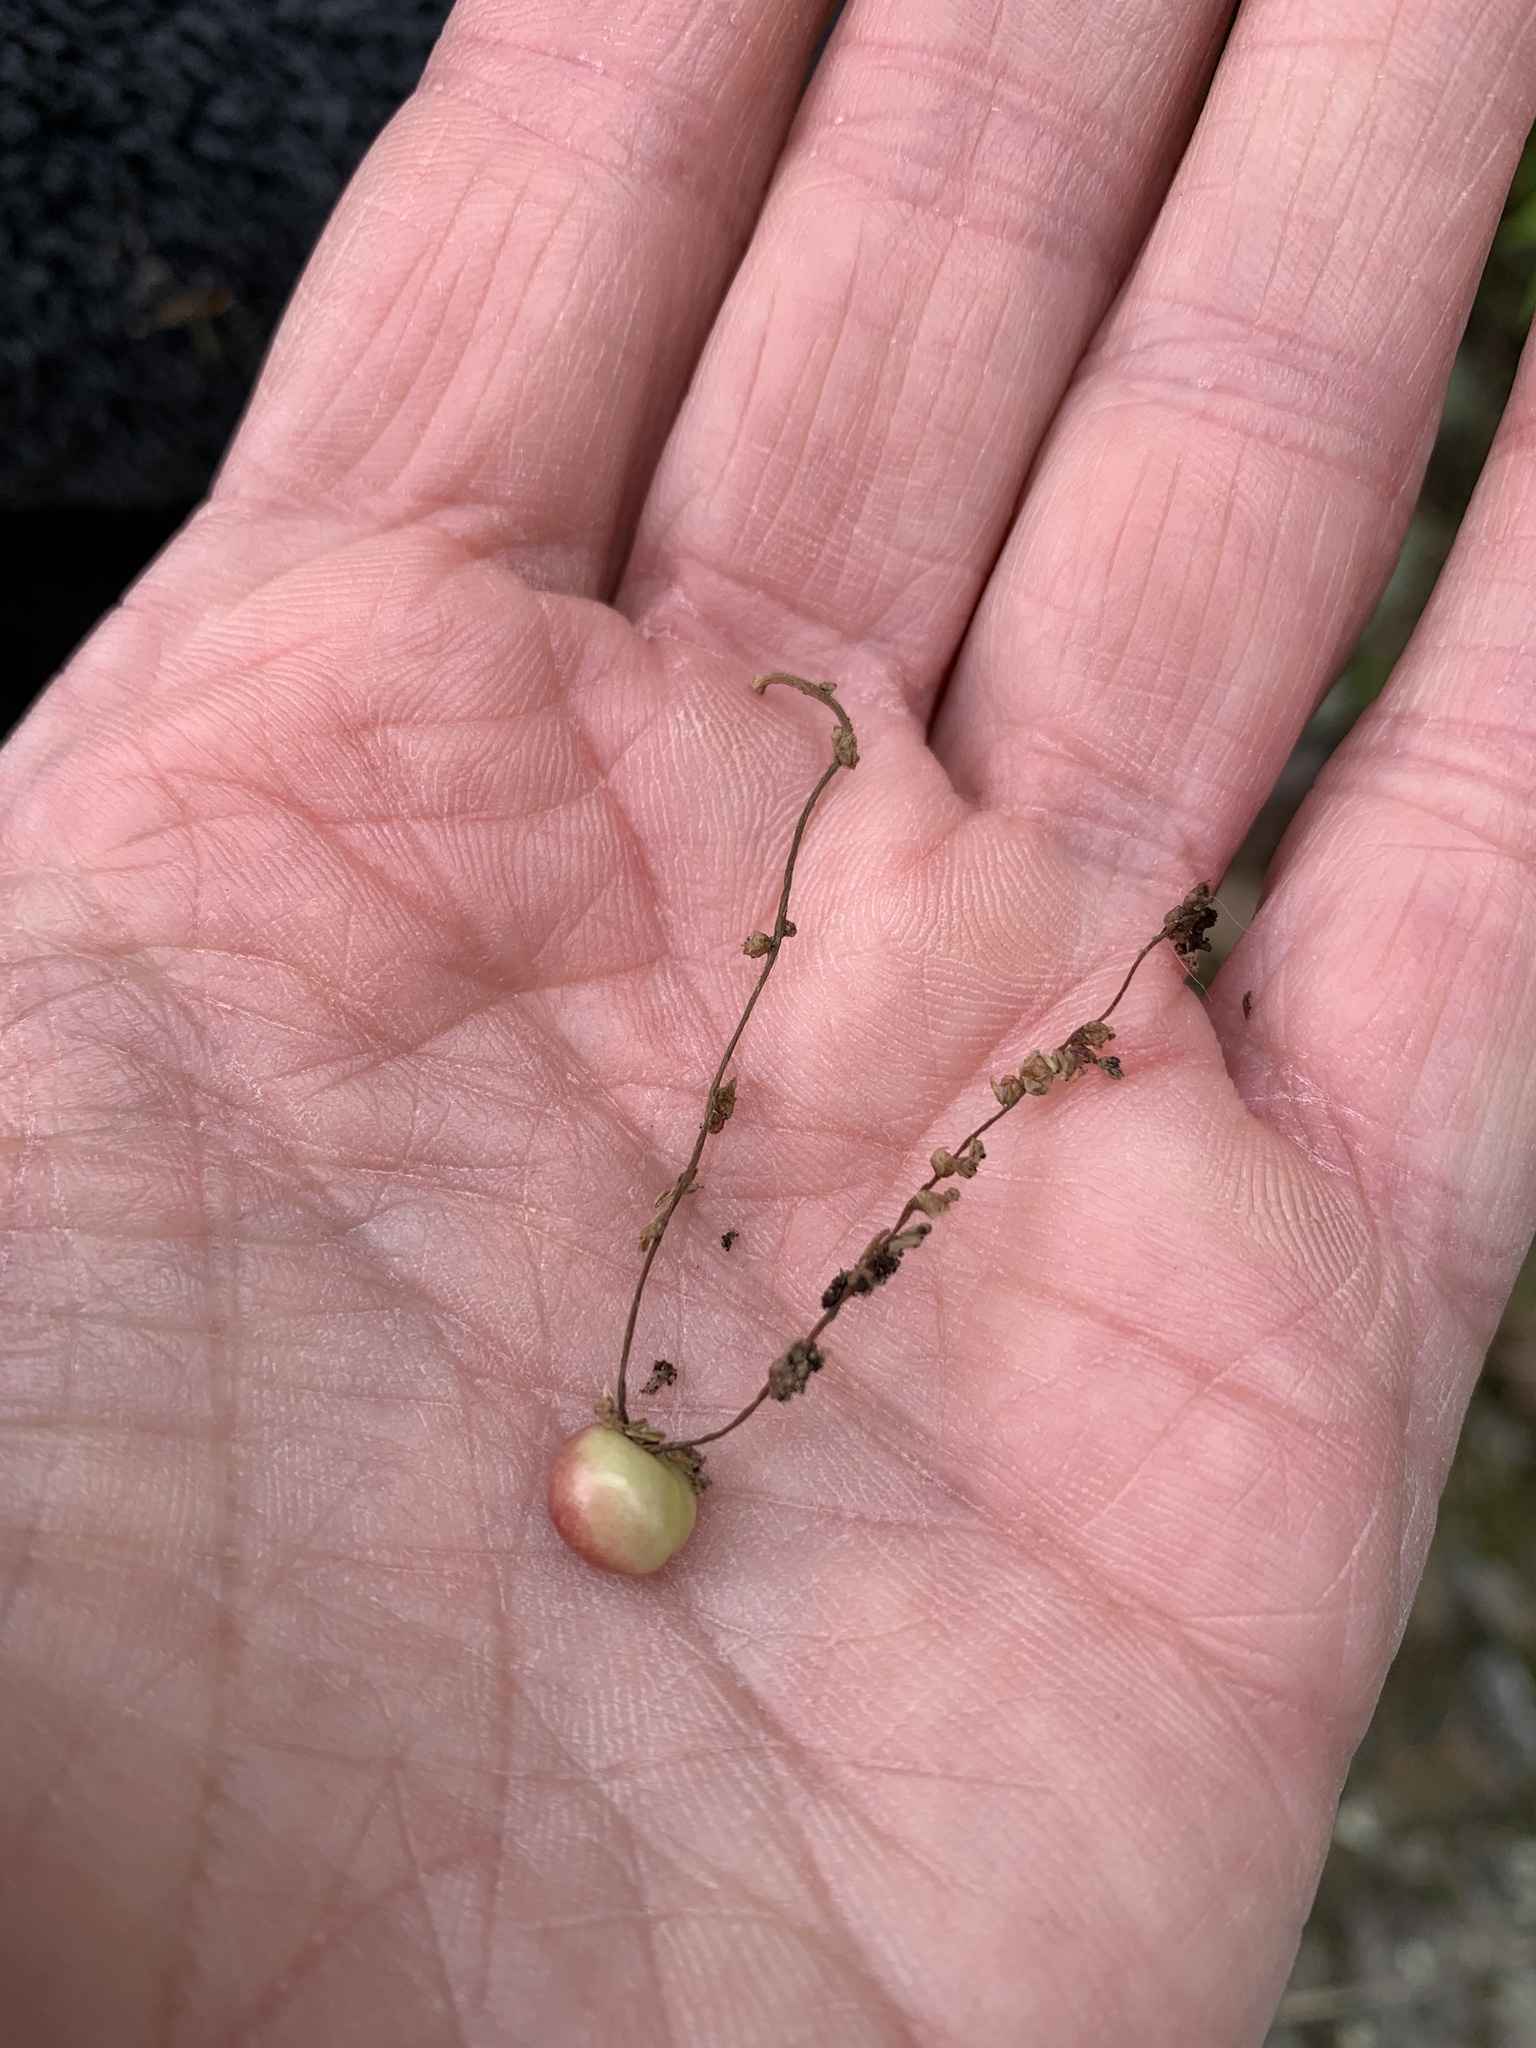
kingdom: Animalia
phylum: Arthropoda
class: Insecta
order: Hymenoptera
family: Cynipidae
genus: Callirhytis
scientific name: Callirhytis
